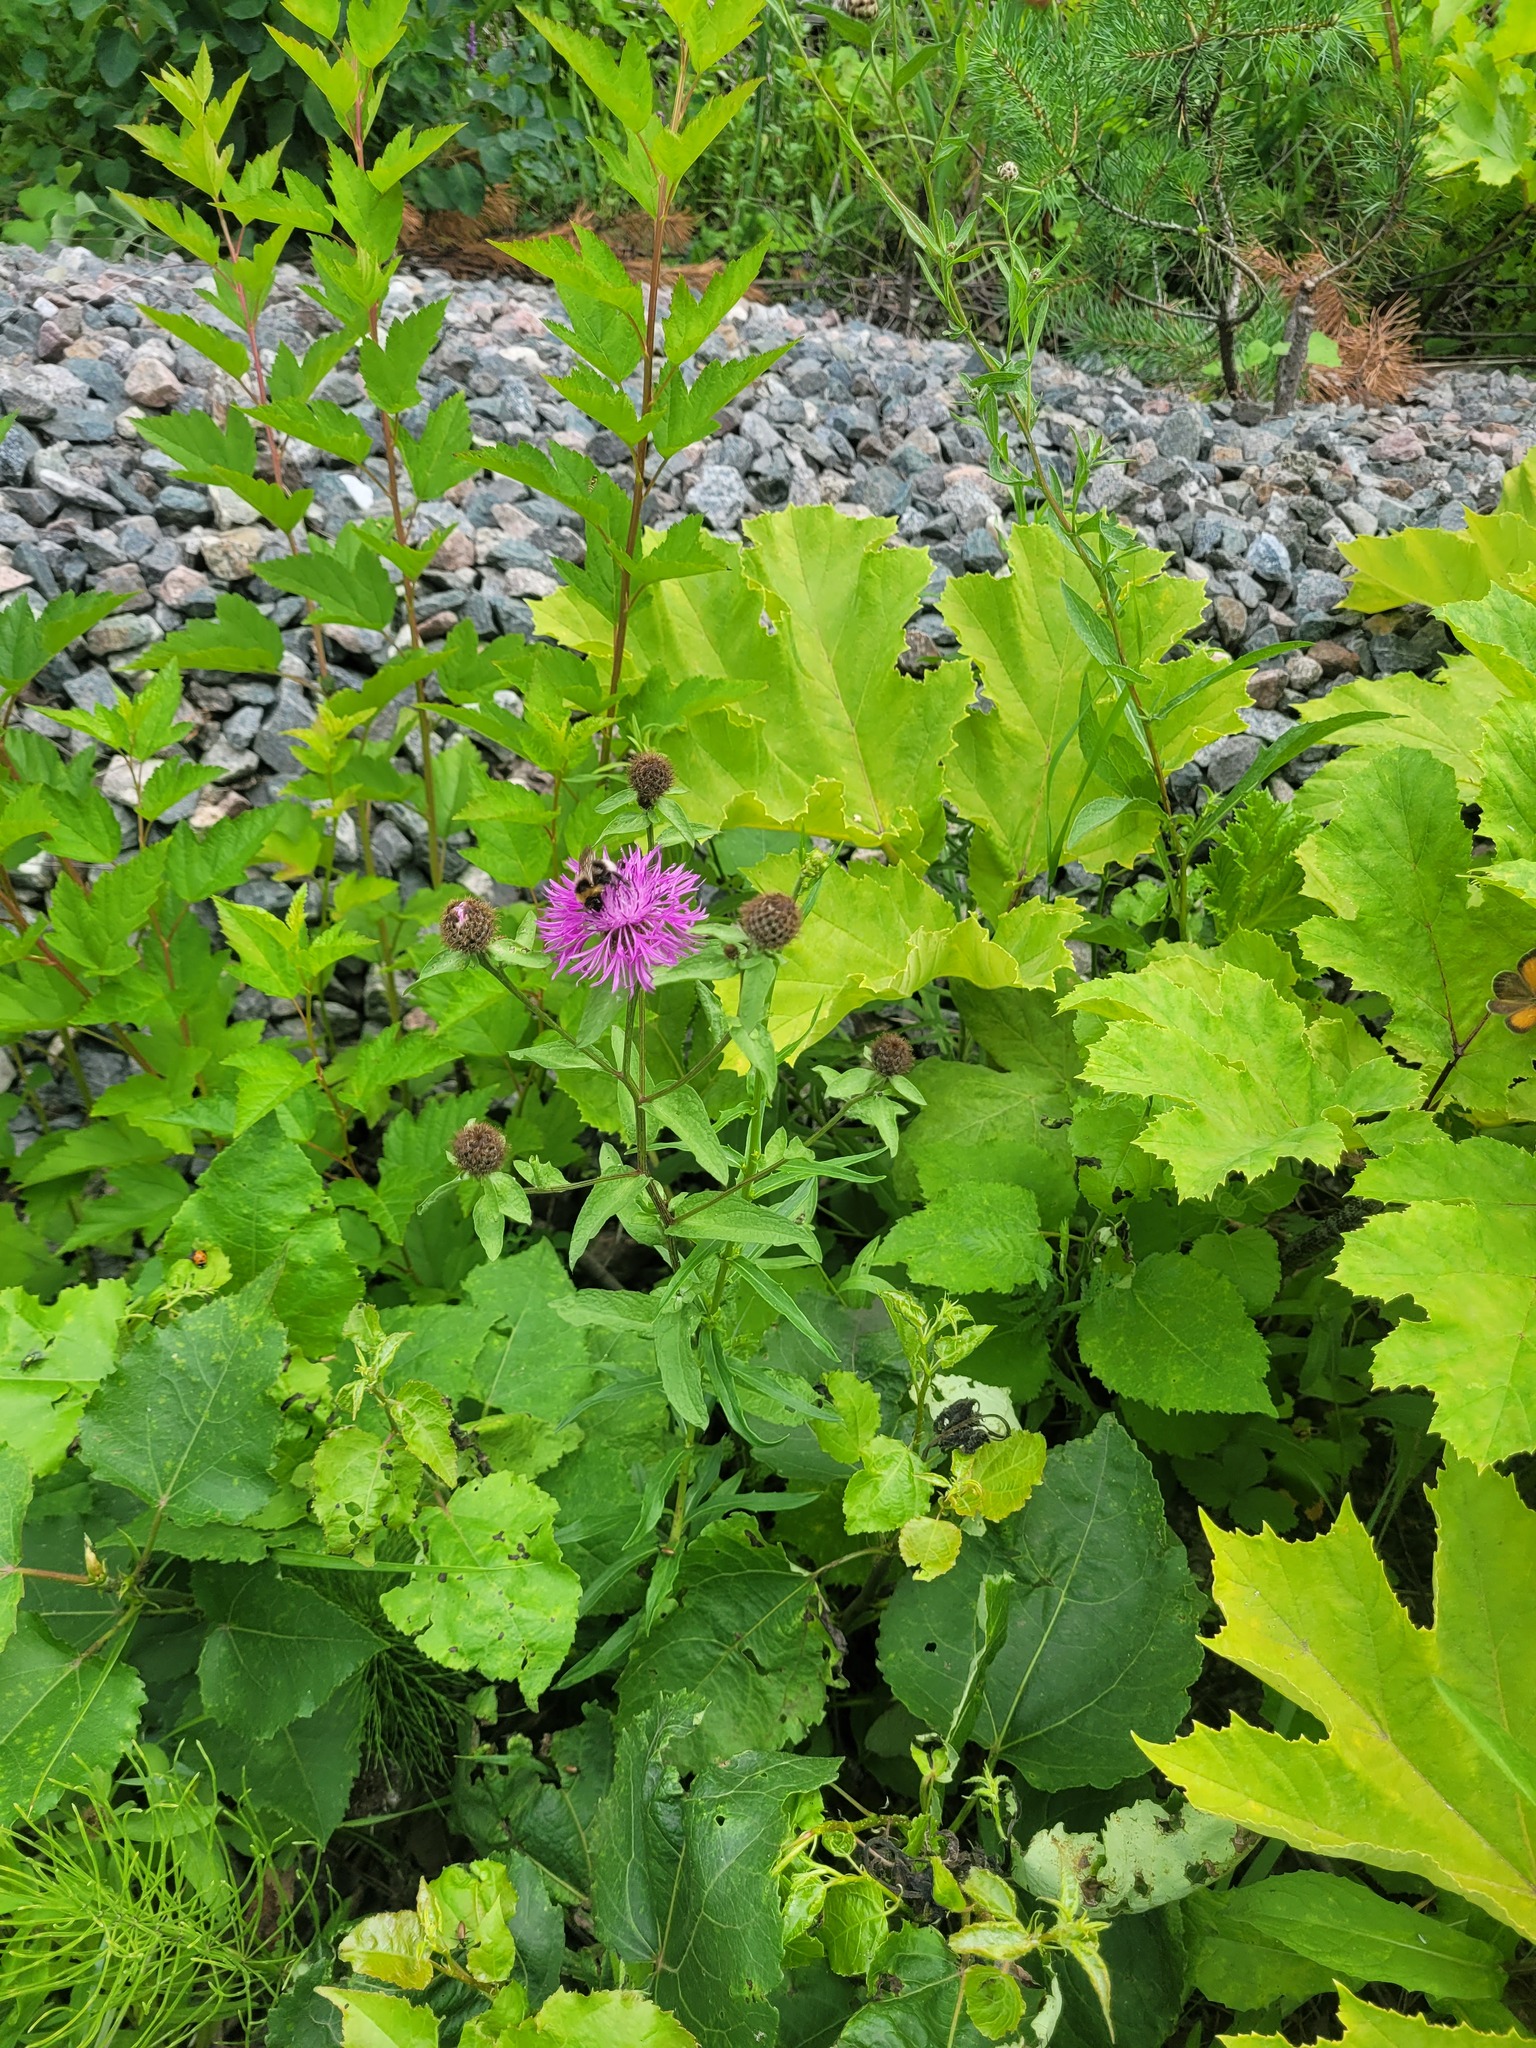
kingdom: Plantae
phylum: Tracheophyta
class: Magnoliopsida
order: Asterales
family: Asteraceae
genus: Centaurea
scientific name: Centaurea phrygia
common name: Wig knapweed
